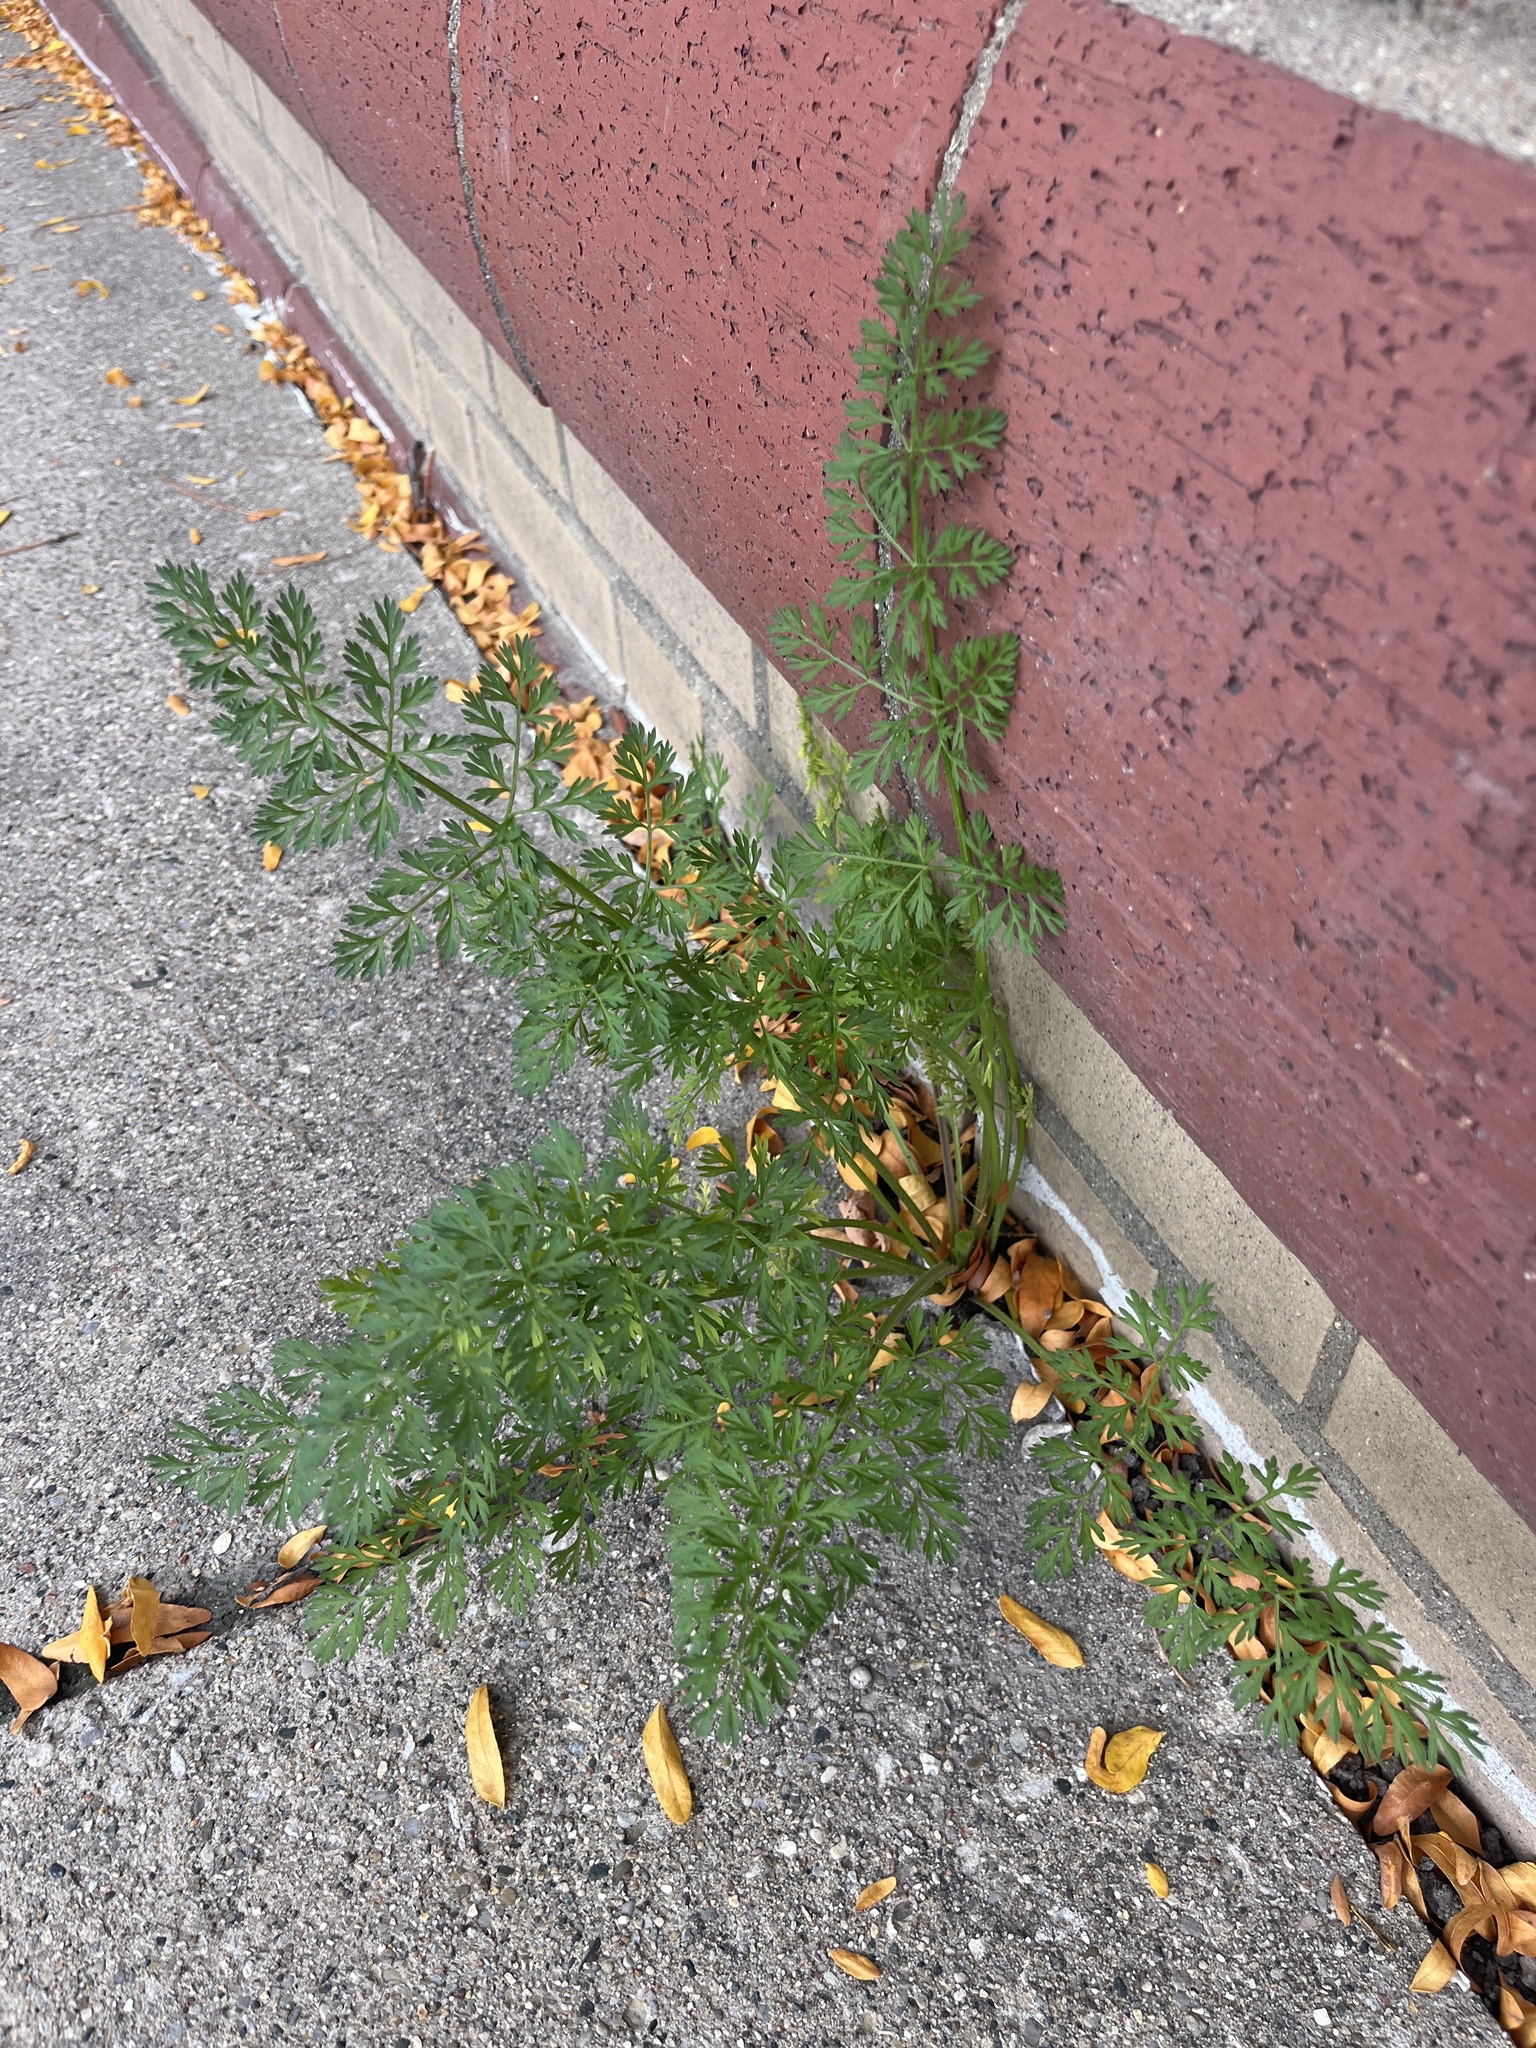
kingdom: Plantae
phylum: Tracheophyta
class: Magnoliopsida
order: Apiales
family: Apiaceae
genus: Daucus
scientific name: Daucus carota
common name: Wild carrot
